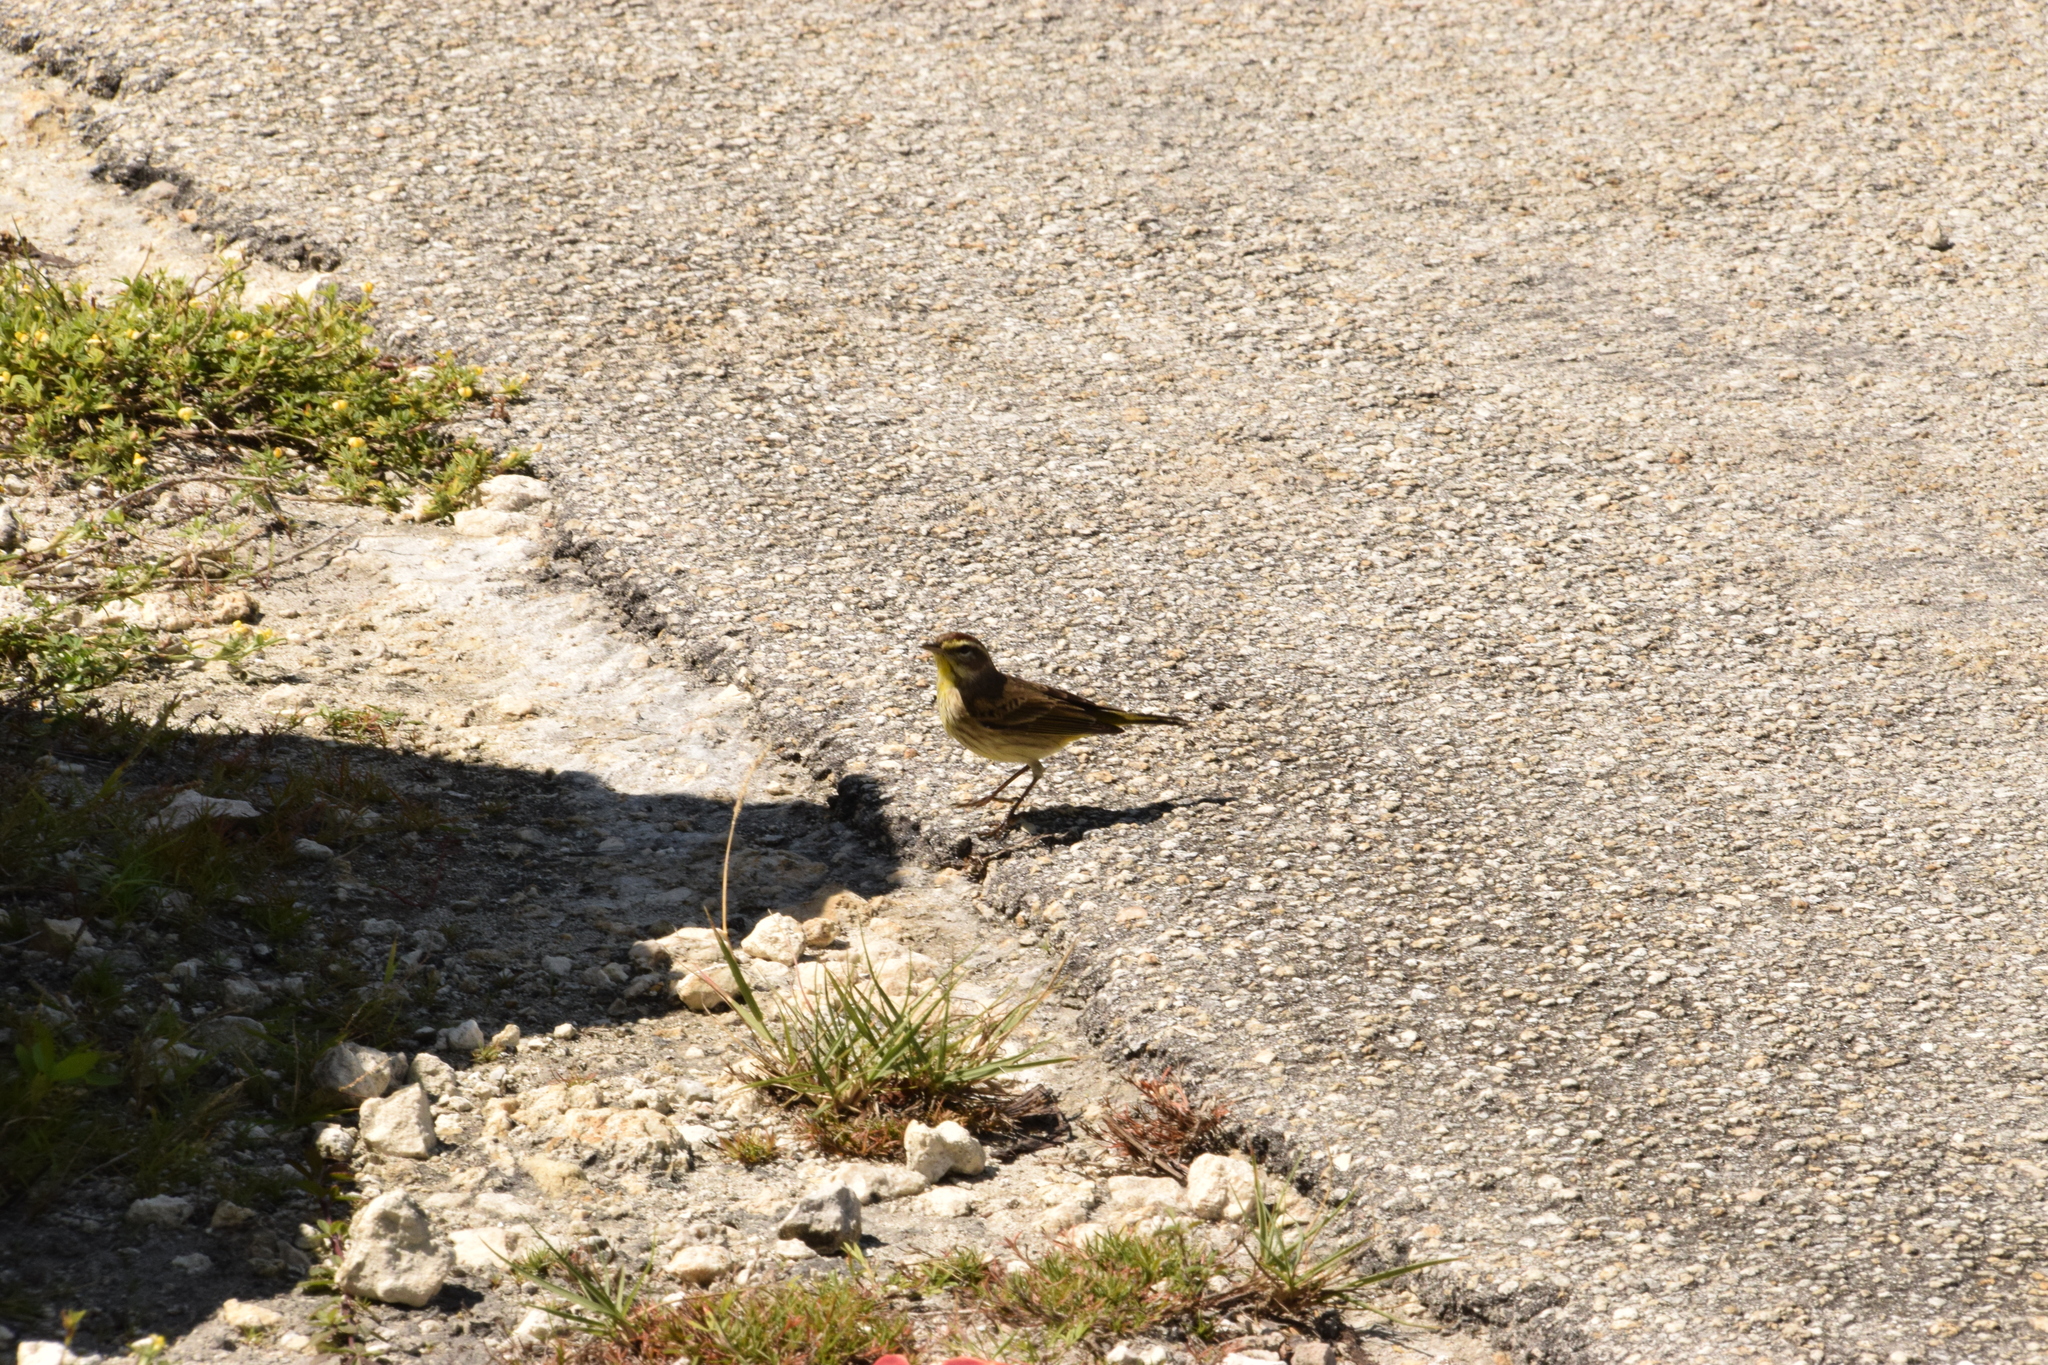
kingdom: Animalia
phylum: Chordata
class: Aves
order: Passeriformes
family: Parulidae
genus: Setophaga
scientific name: Setophaga palmarum
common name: Palm warbler
